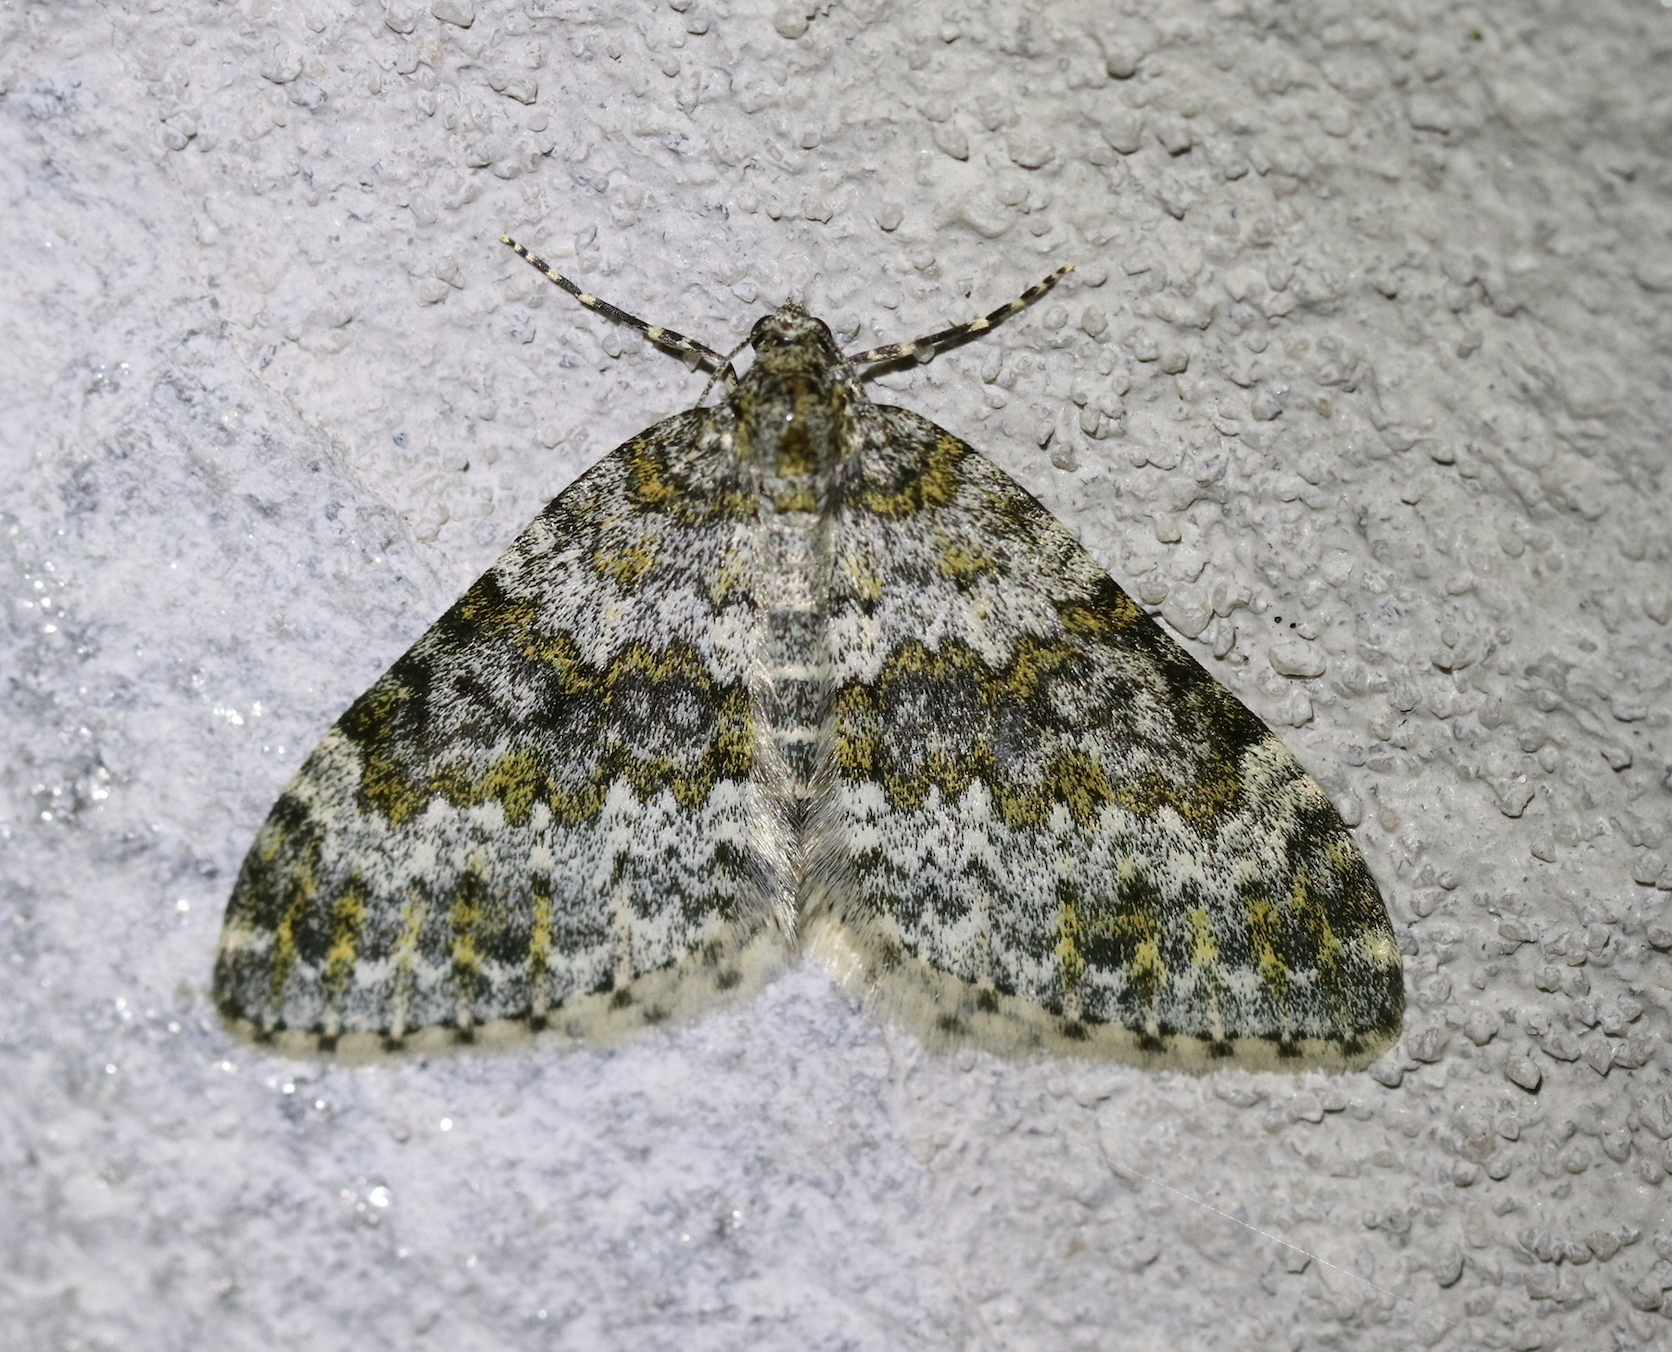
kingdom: Animalia
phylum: Arthropoda
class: Insecta
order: Lepidoptera
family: Geometridae
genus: Entephria
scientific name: Entephria flavicinctata
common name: Yellow-ringed carpet
